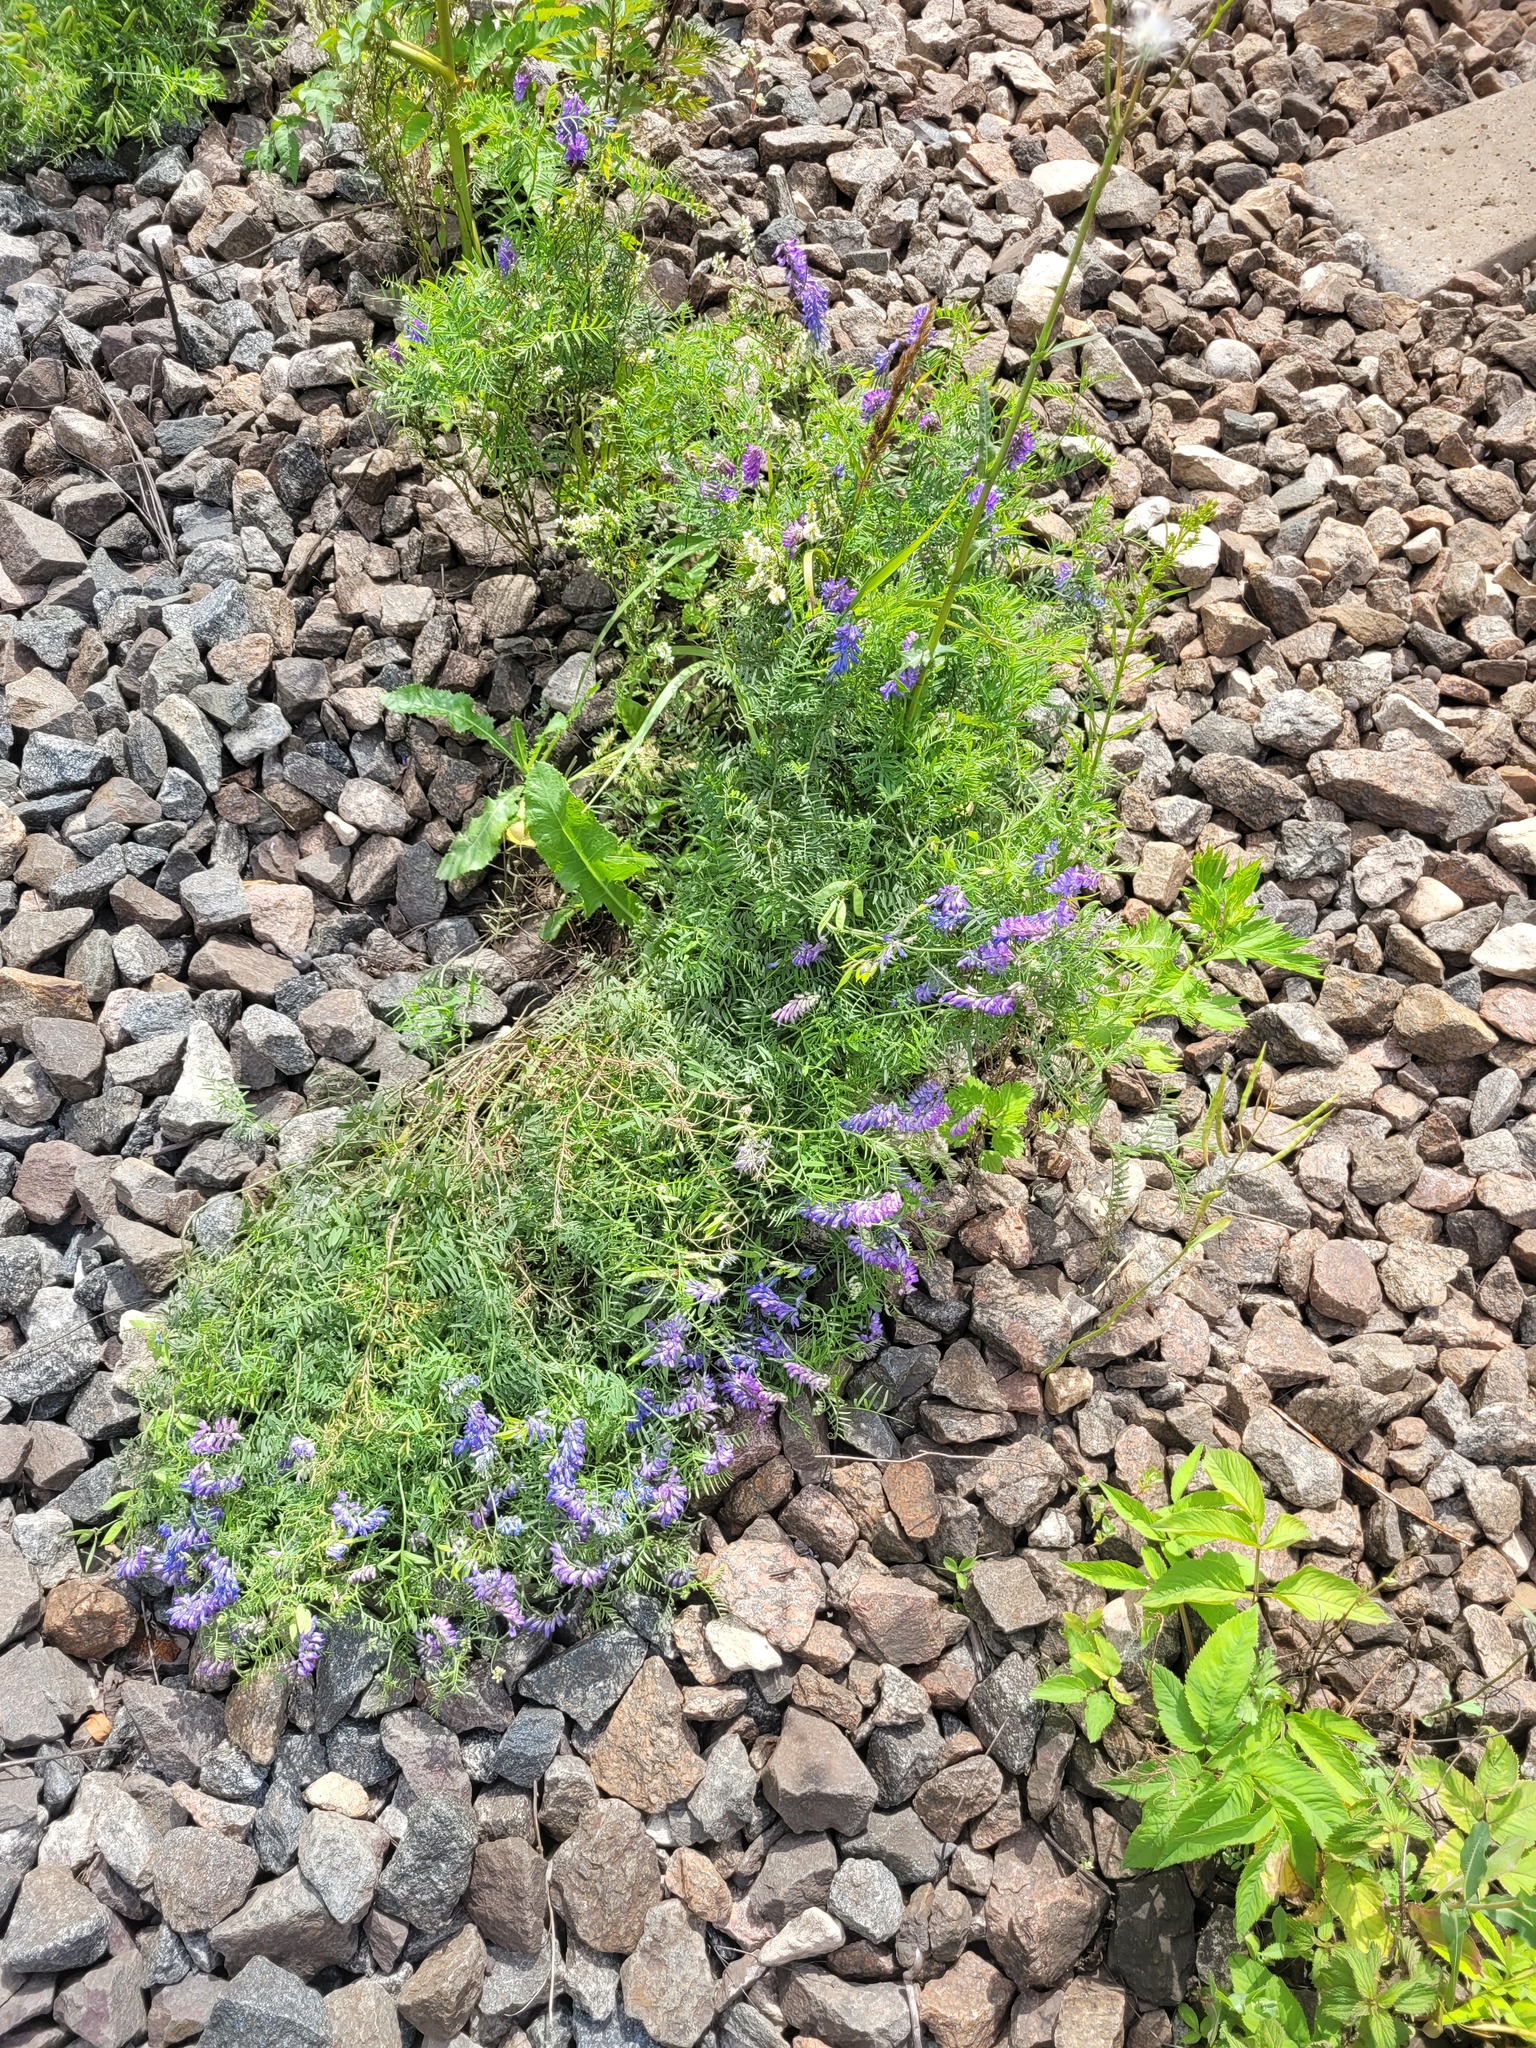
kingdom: Plantae
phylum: Tracheophyta
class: Magnoliopsida
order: Fabales
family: Fabaceae
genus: Vicia
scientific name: Vicia cracca
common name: Bird vetch
